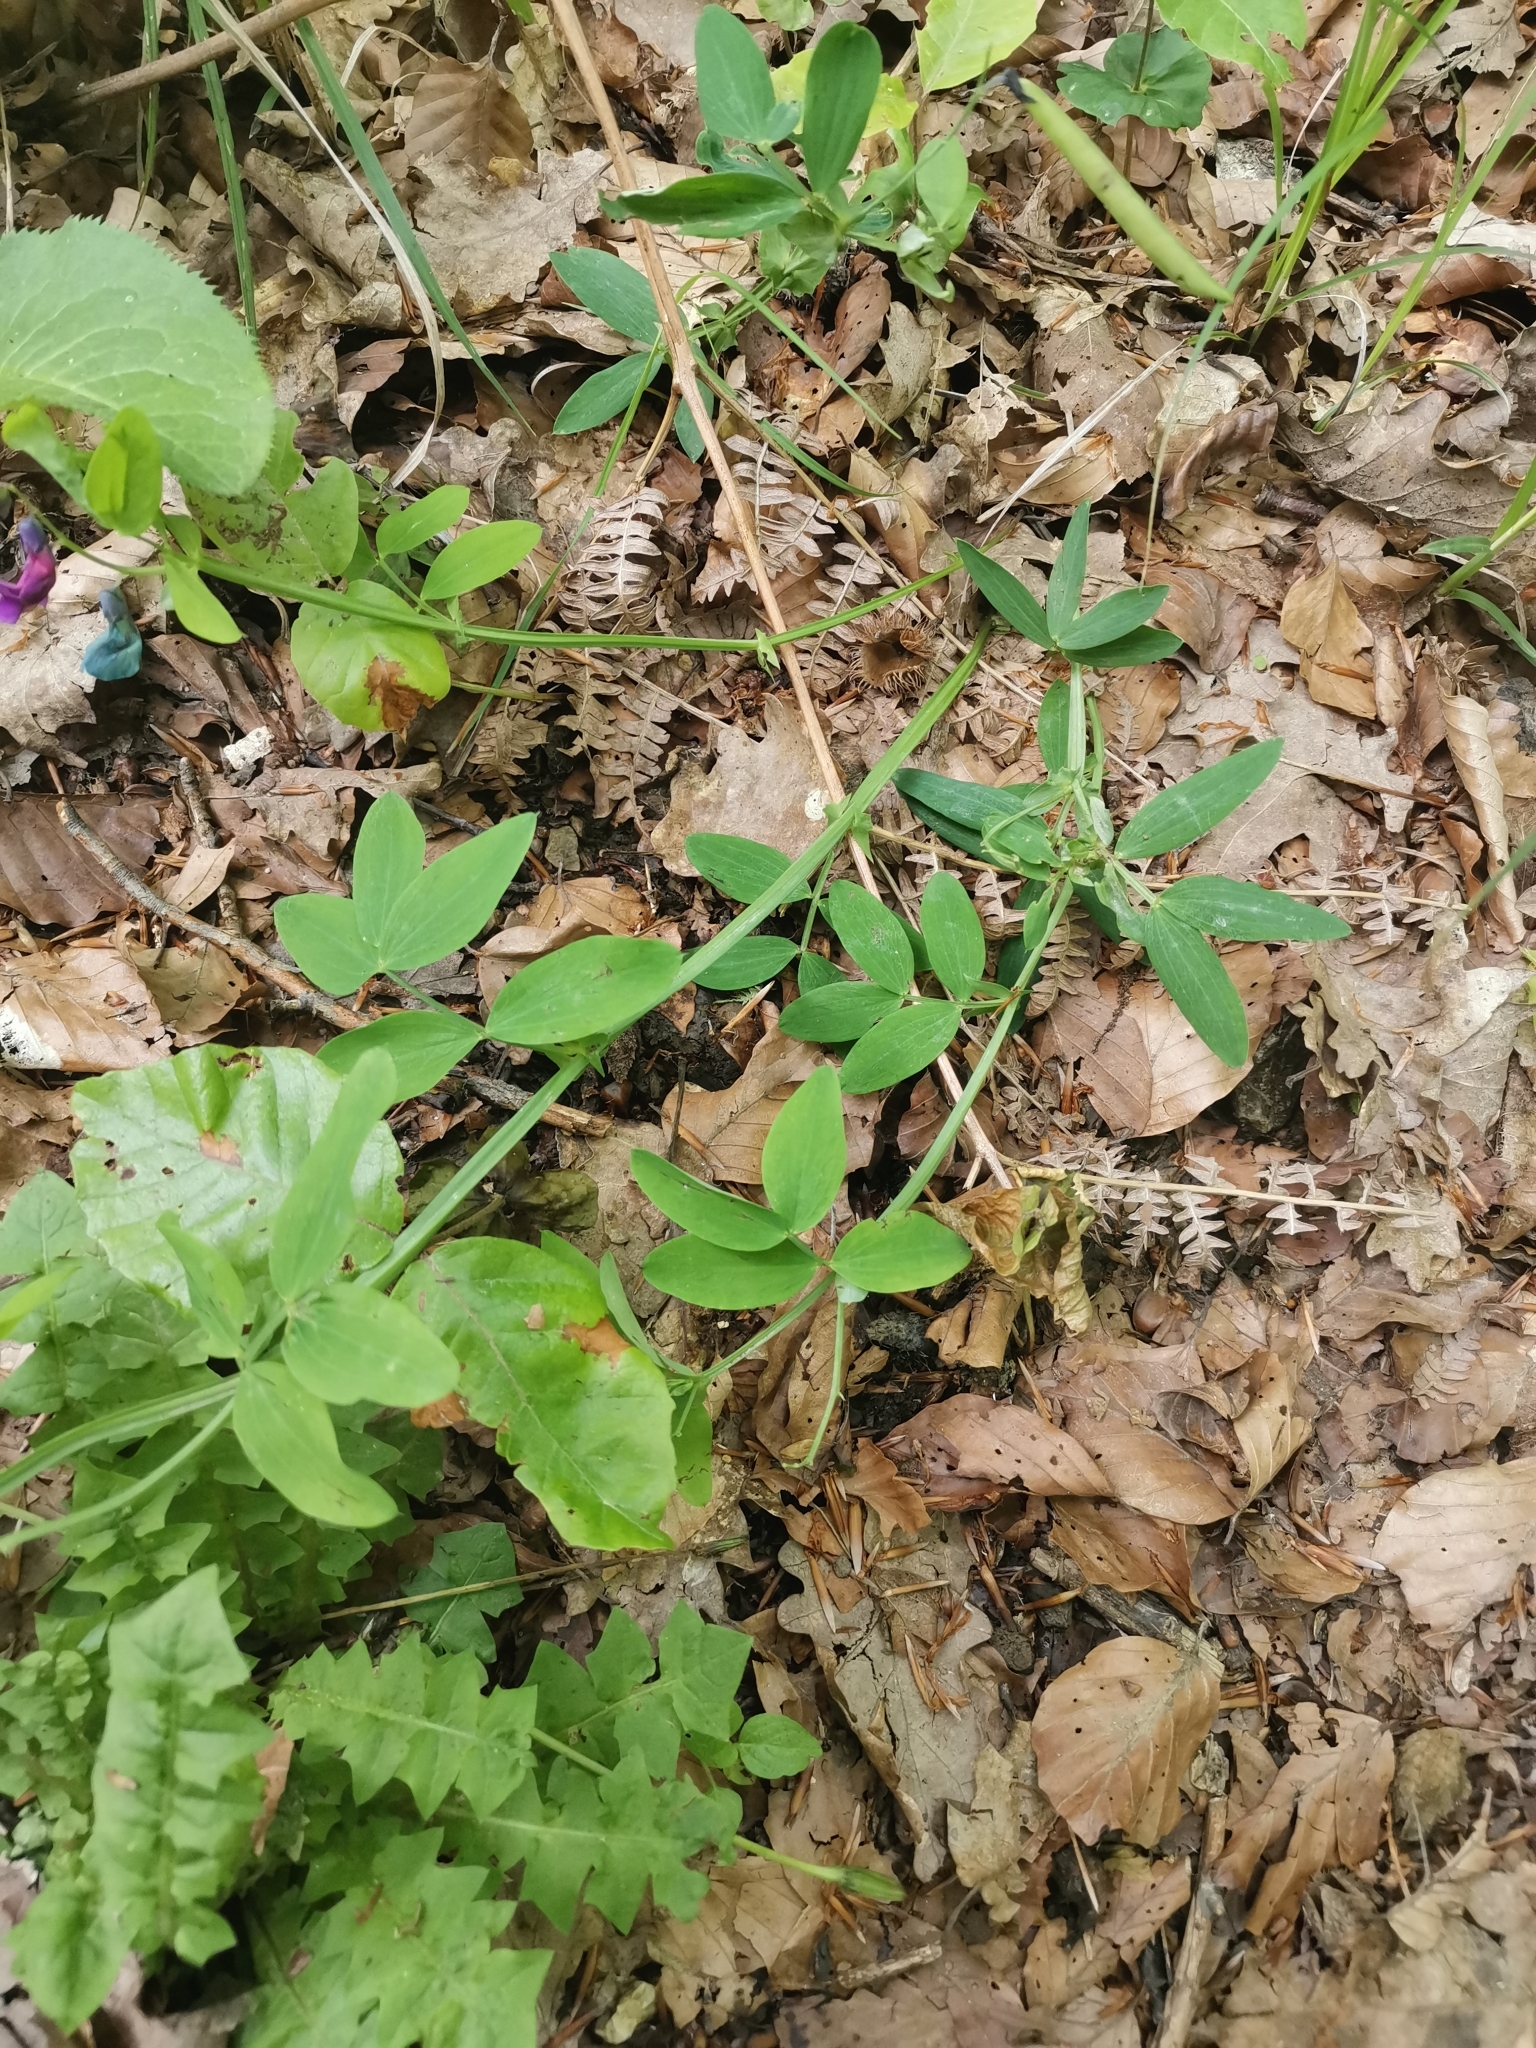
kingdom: Plantae
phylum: Tracheophyta
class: Magnoliopsida
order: Fabales
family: Fabaceae
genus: Lathyrus
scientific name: Lathyrus linifolius
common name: Bitter-vetch
